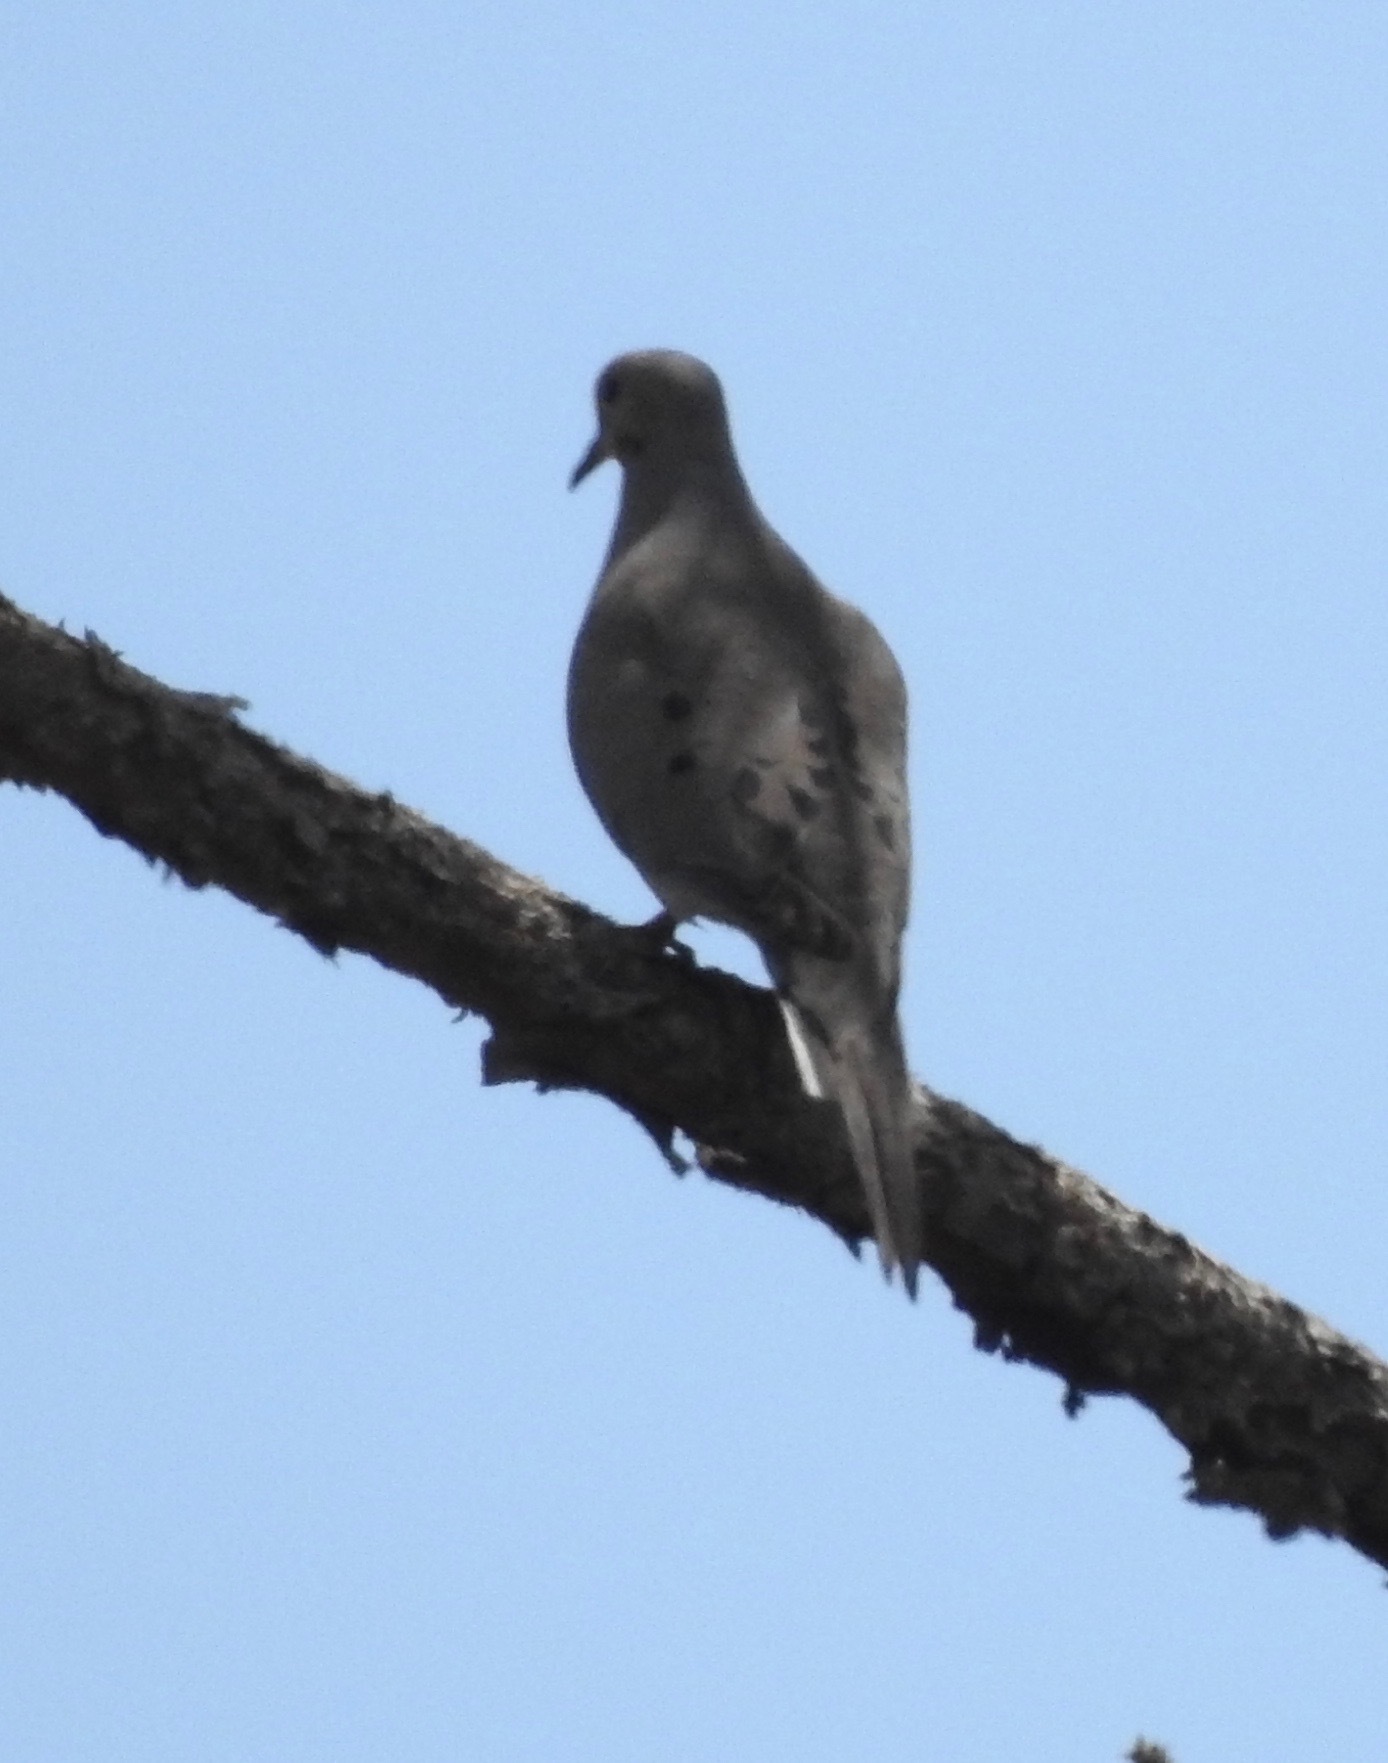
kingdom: Animalia
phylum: Chordata
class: Aves
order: Columbiformes
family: Columbidae
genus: Zenaida
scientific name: Zenaida macroura
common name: Mourning dove
